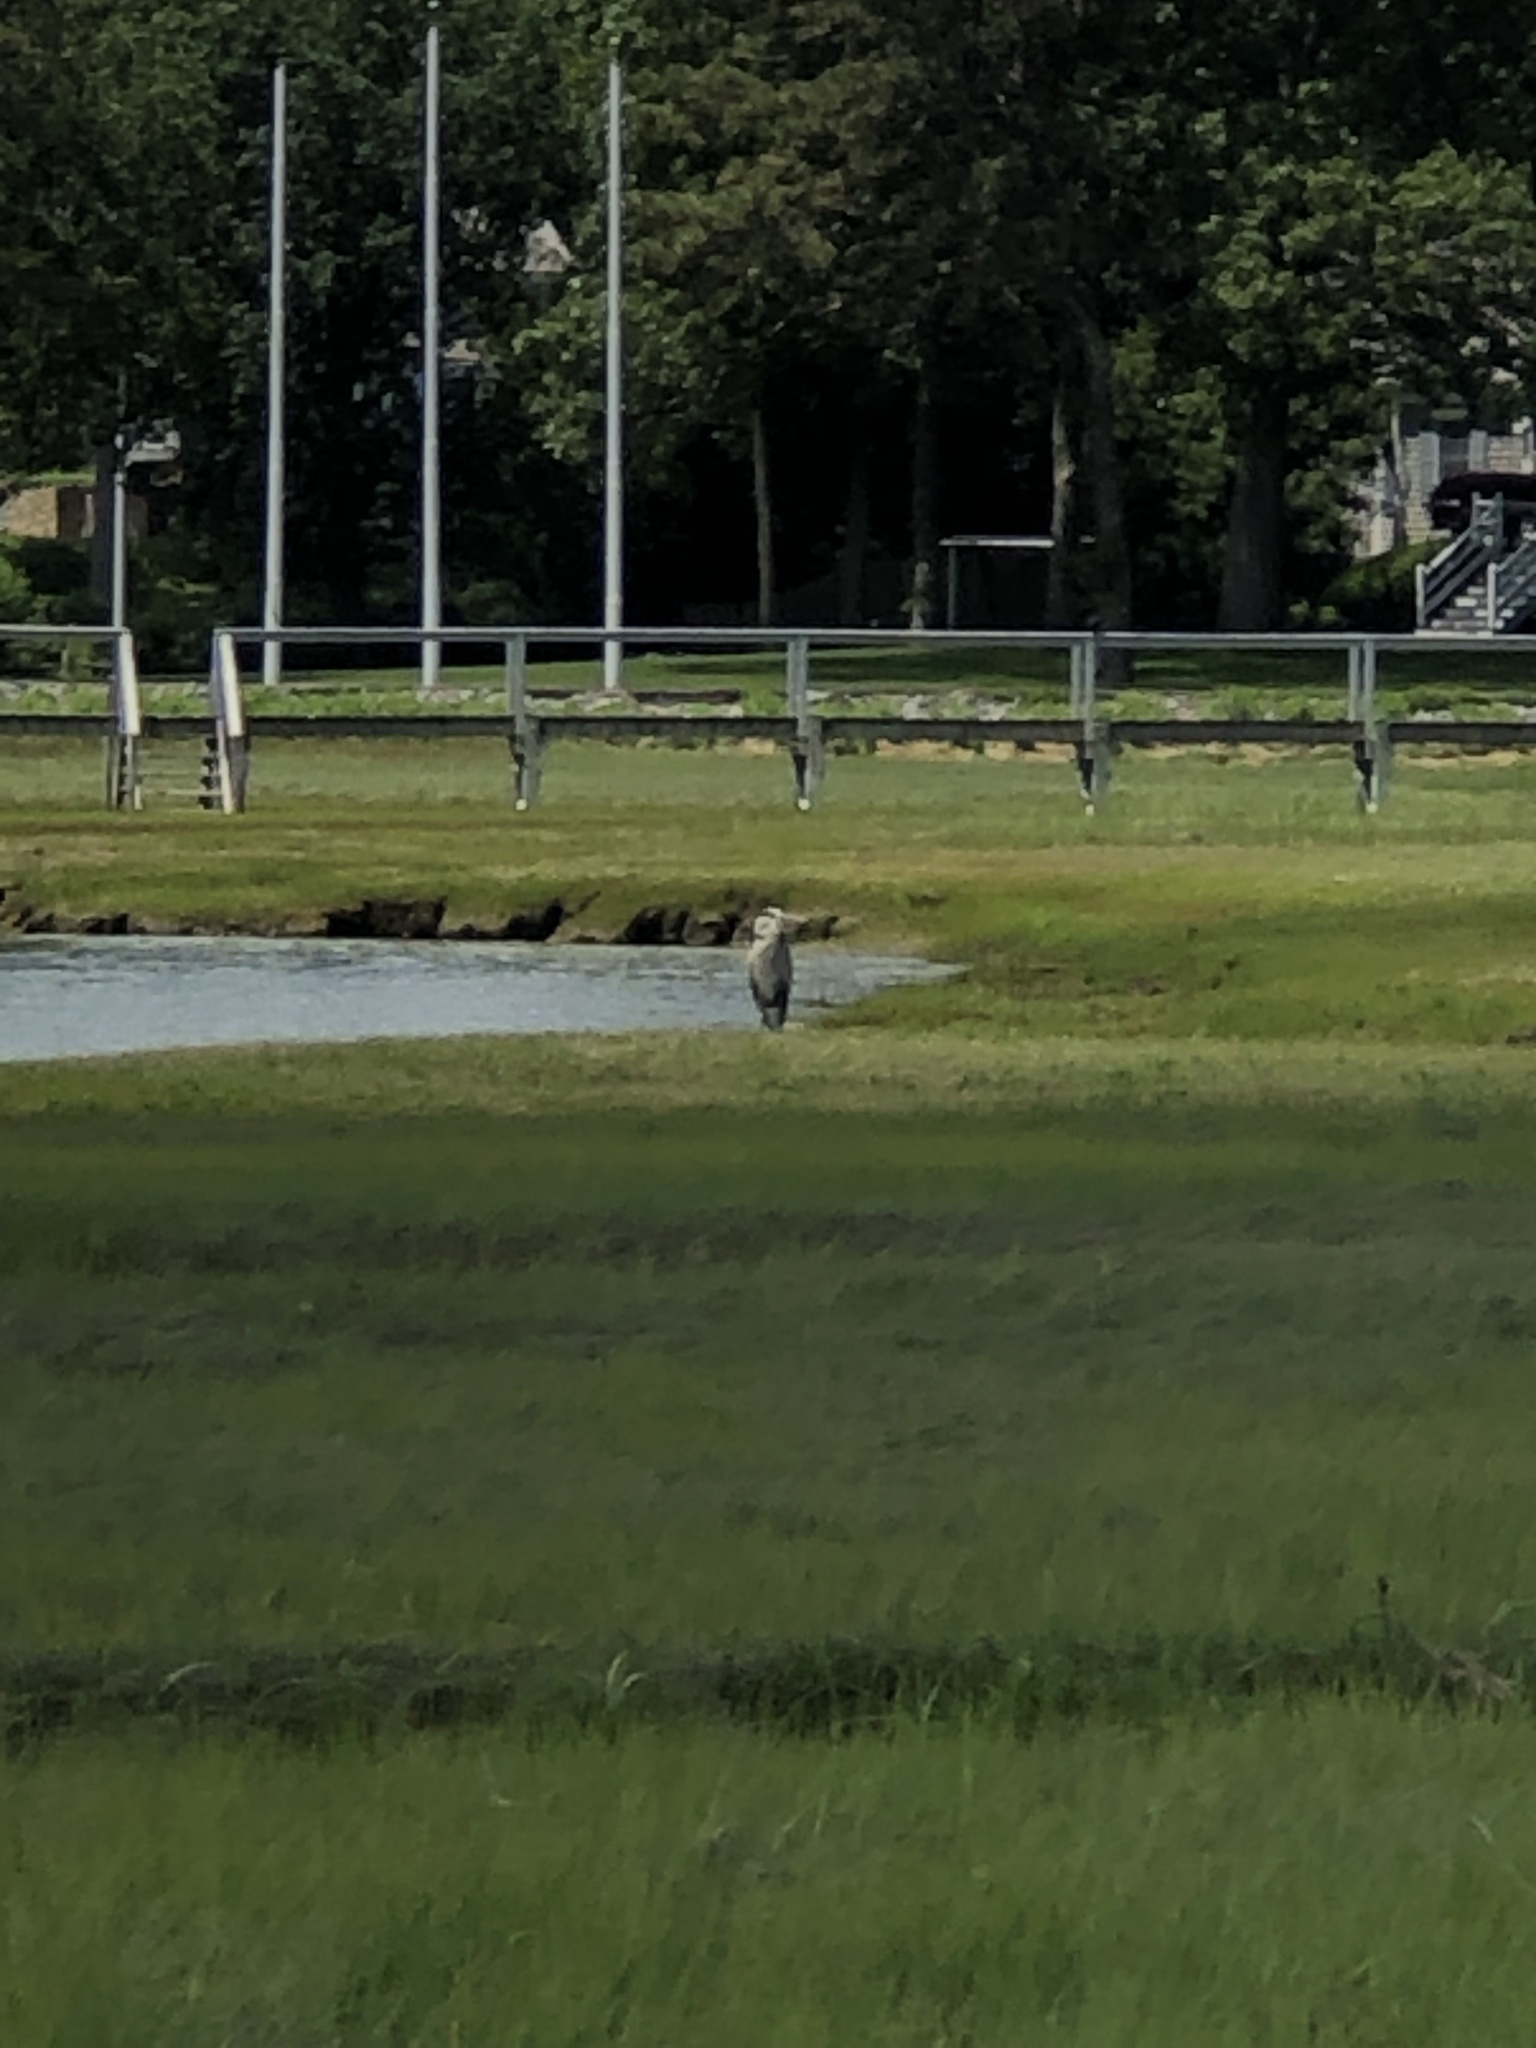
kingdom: Animalia
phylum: Chordata
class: Aves
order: Pelecaniformes
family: Ardeidae
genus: Ardea
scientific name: Ardea herodias
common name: Great blue heron
